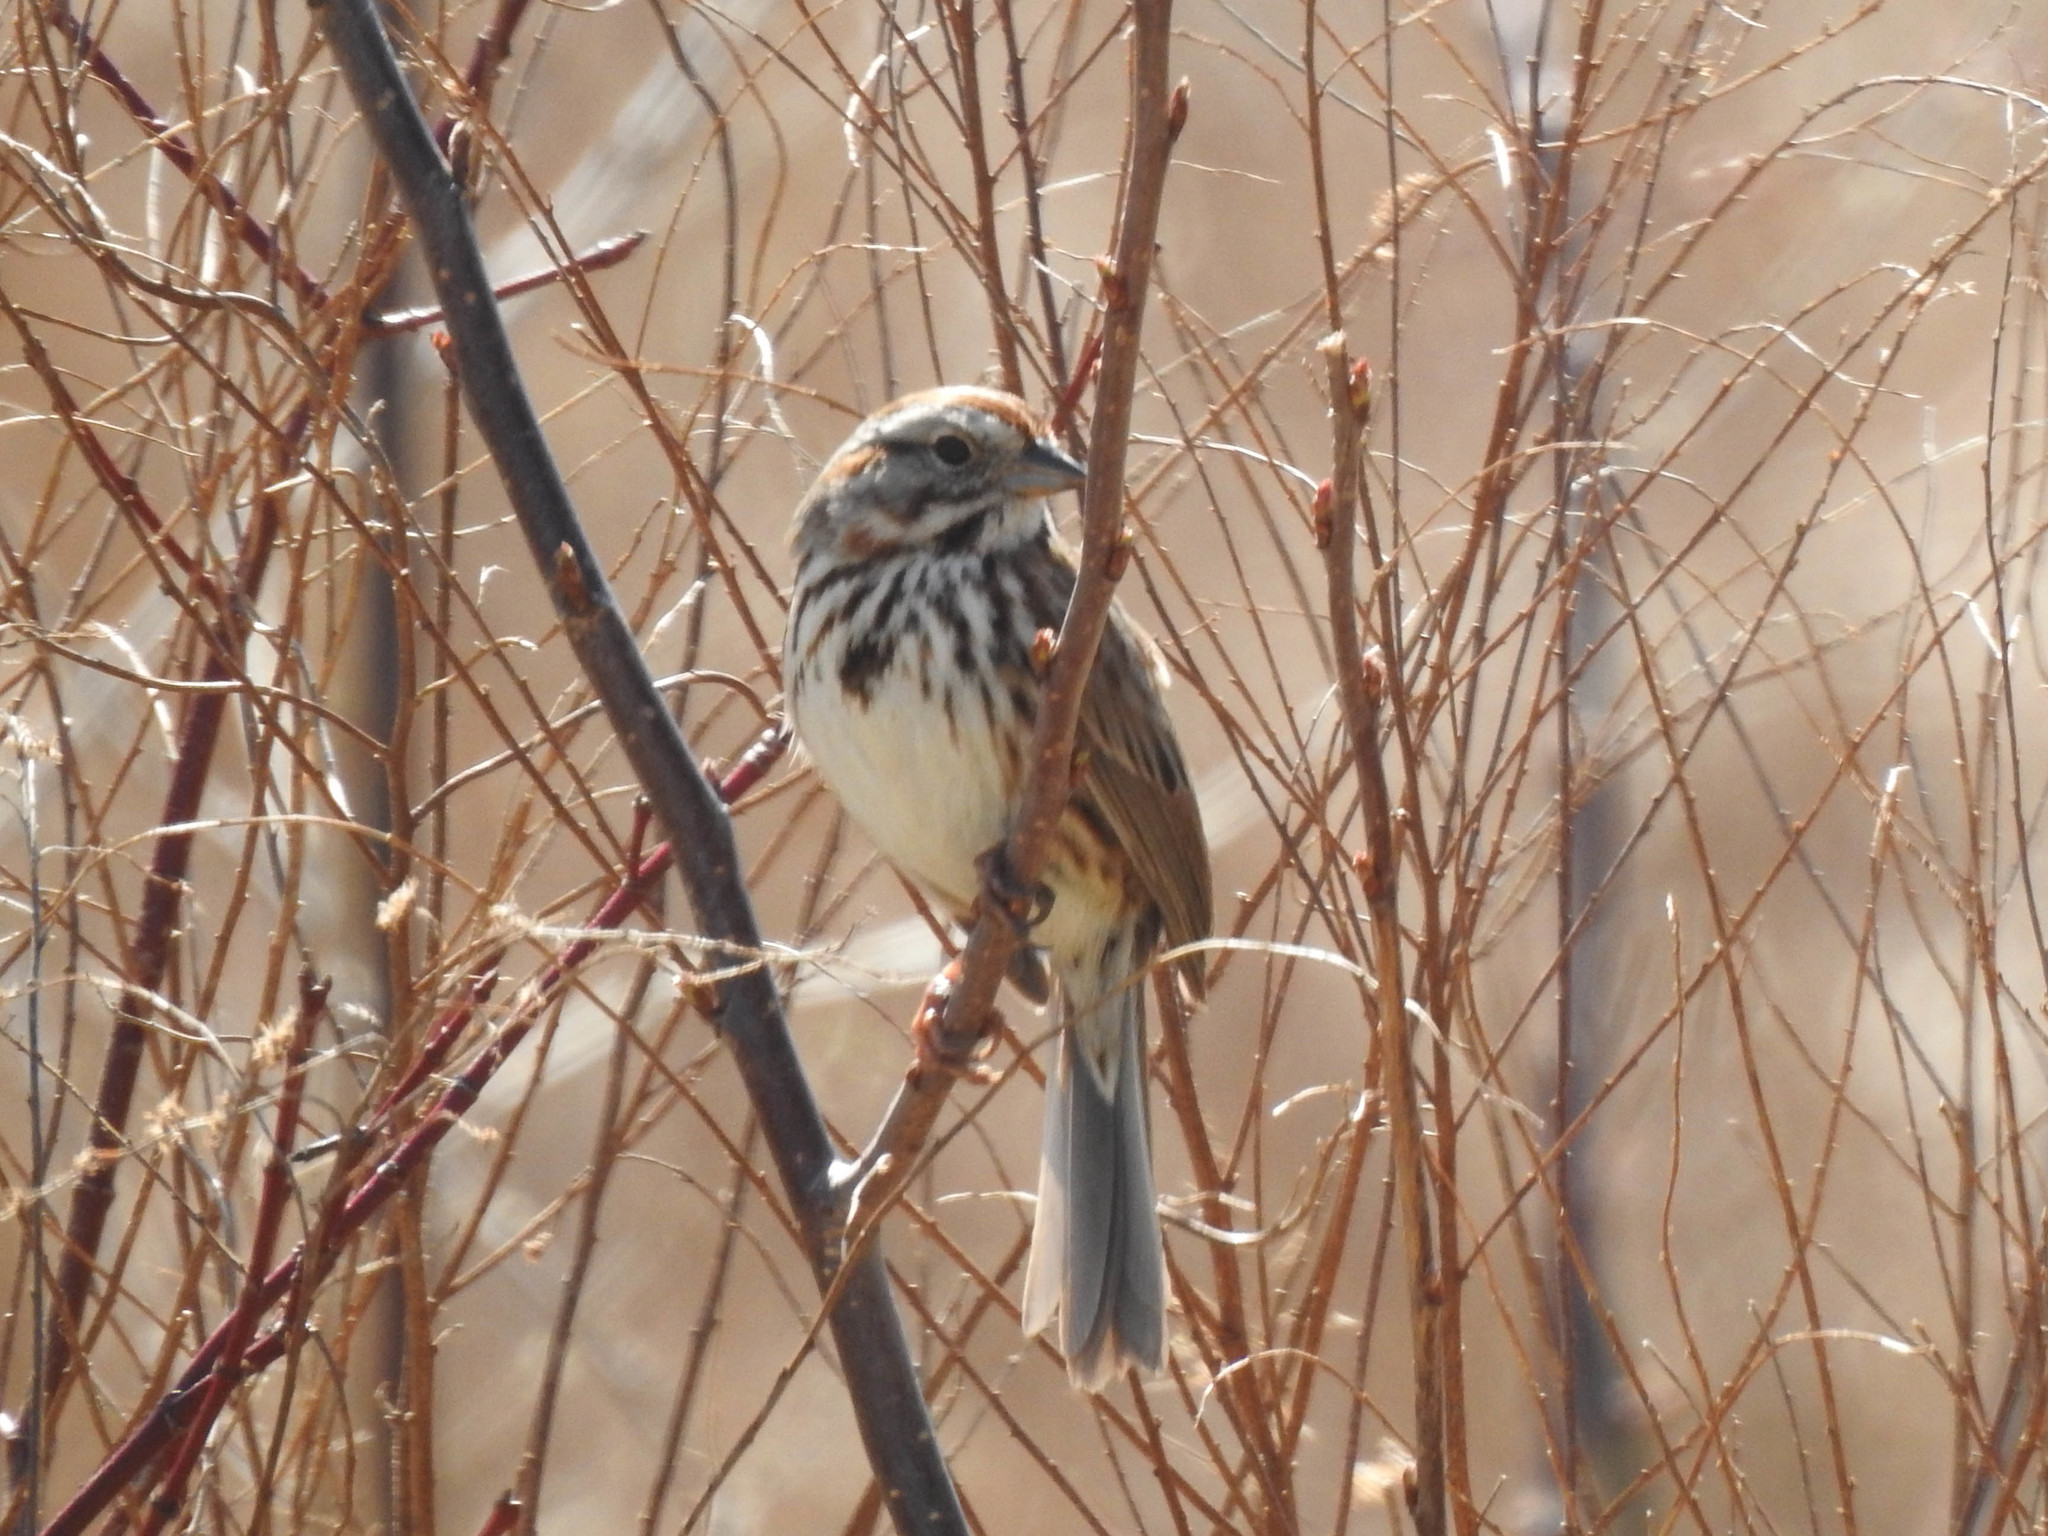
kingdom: Animalia
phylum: Chordata
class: Aves
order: Passeriformes
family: Passerellidae
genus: Melospiza
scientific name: Melospiza melodia
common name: Song sparrow
